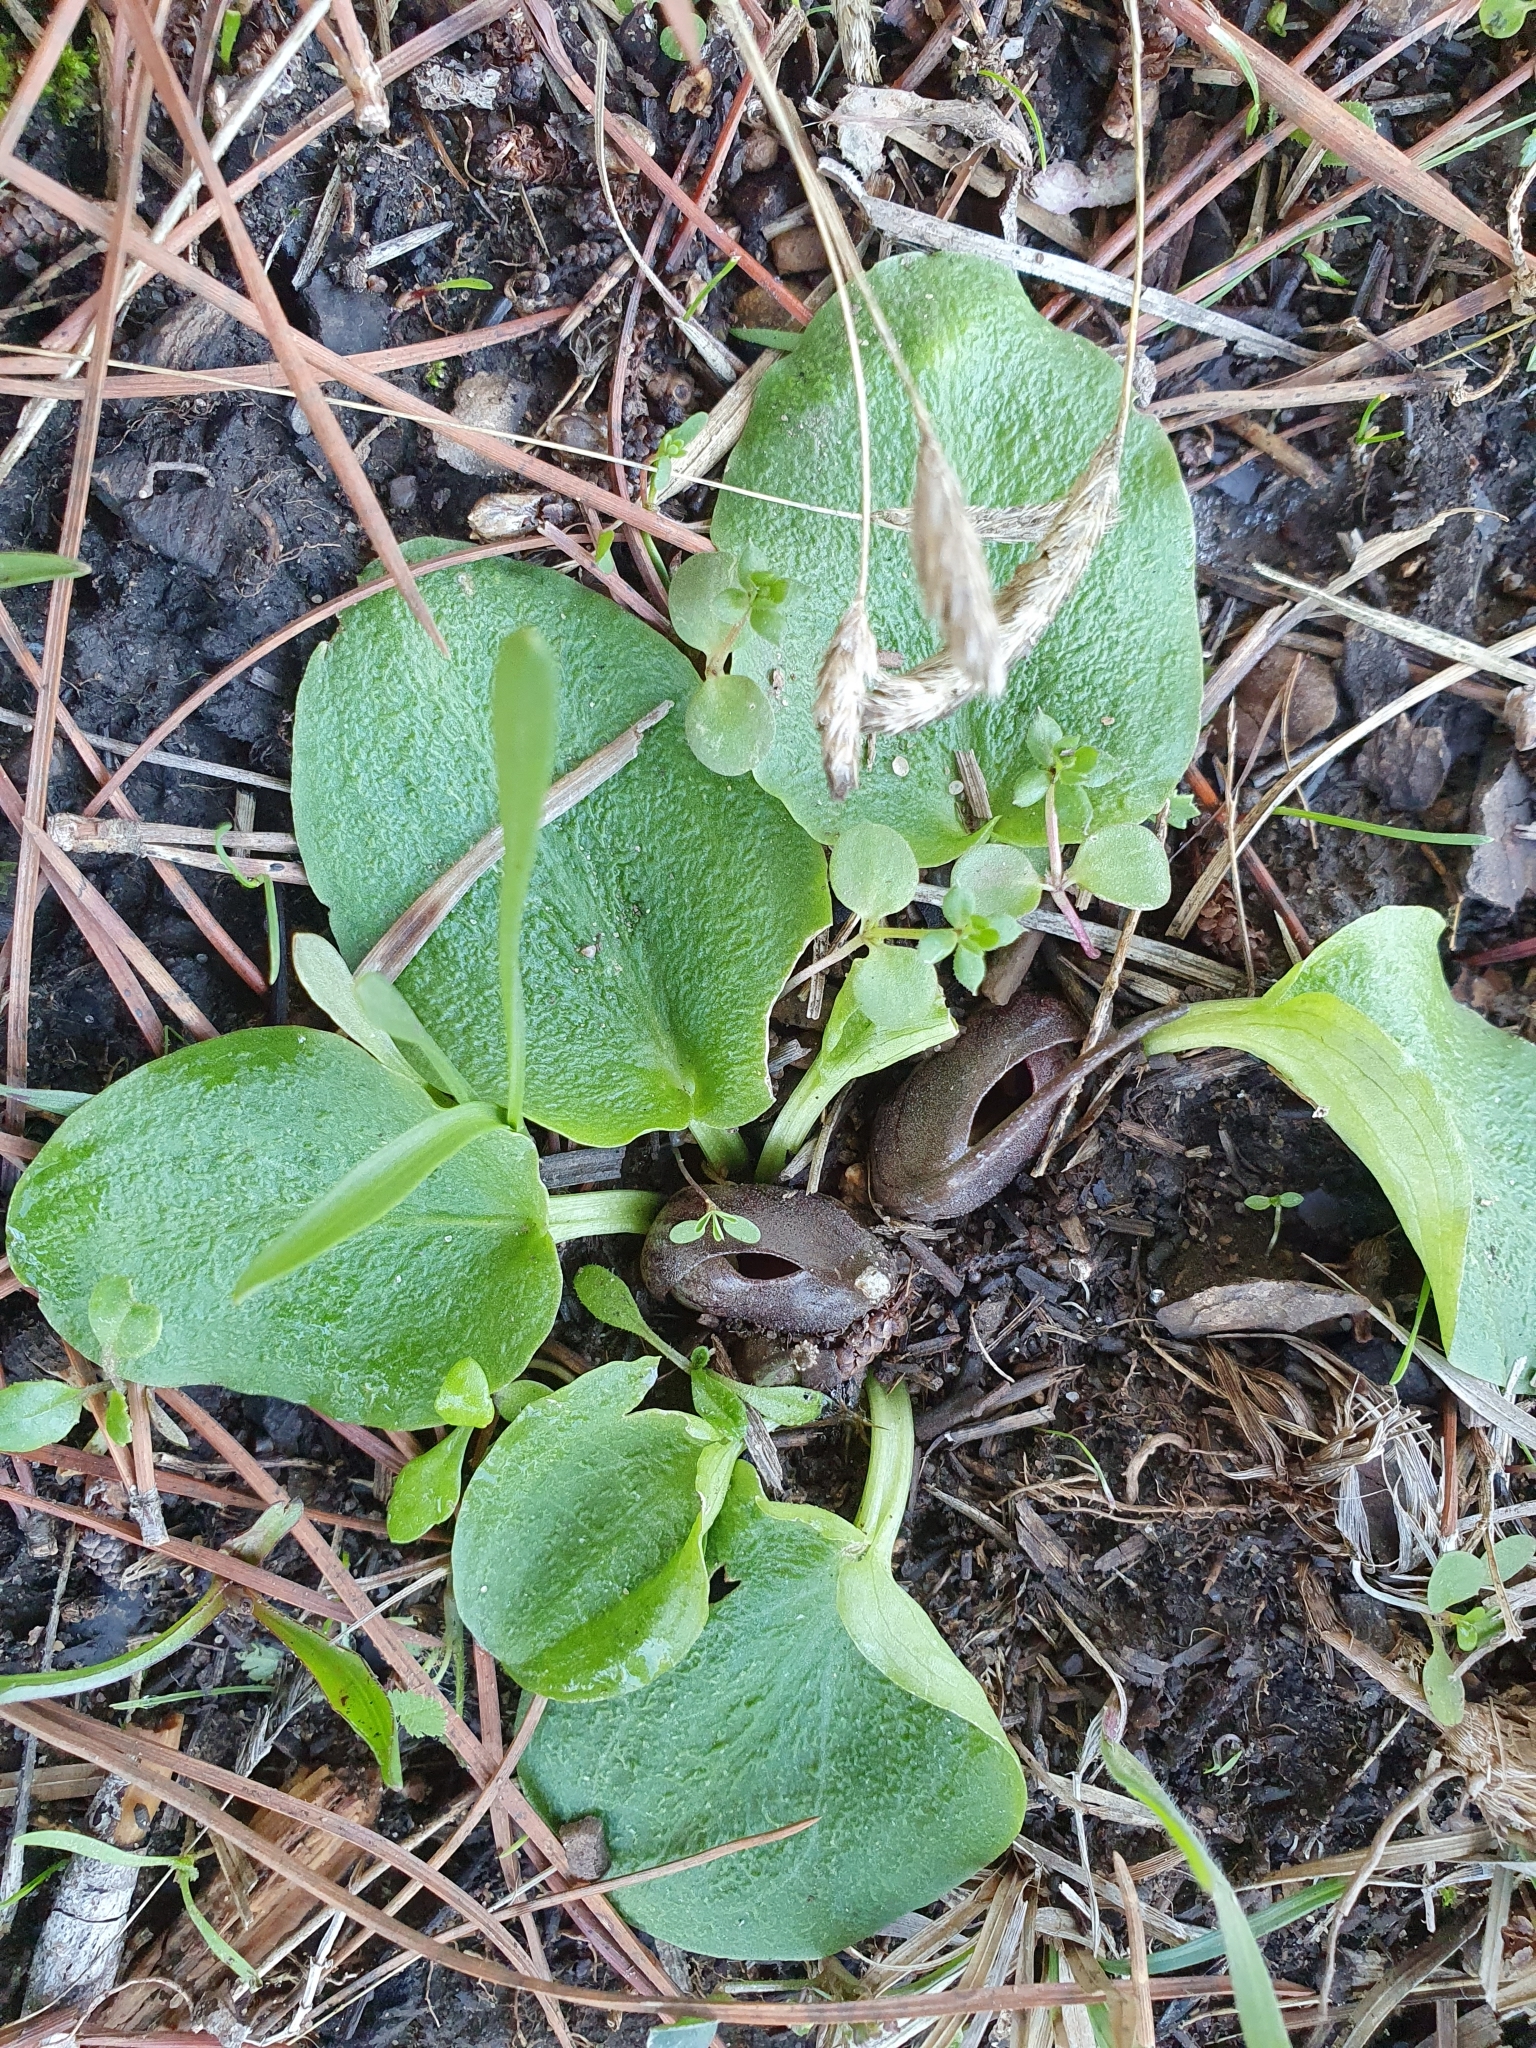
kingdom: Plantae
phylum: Tracheophyta
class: Liliopsida
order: Alismatales
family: Araceae
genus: Ambrosina
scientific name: Ambrosina bassii
